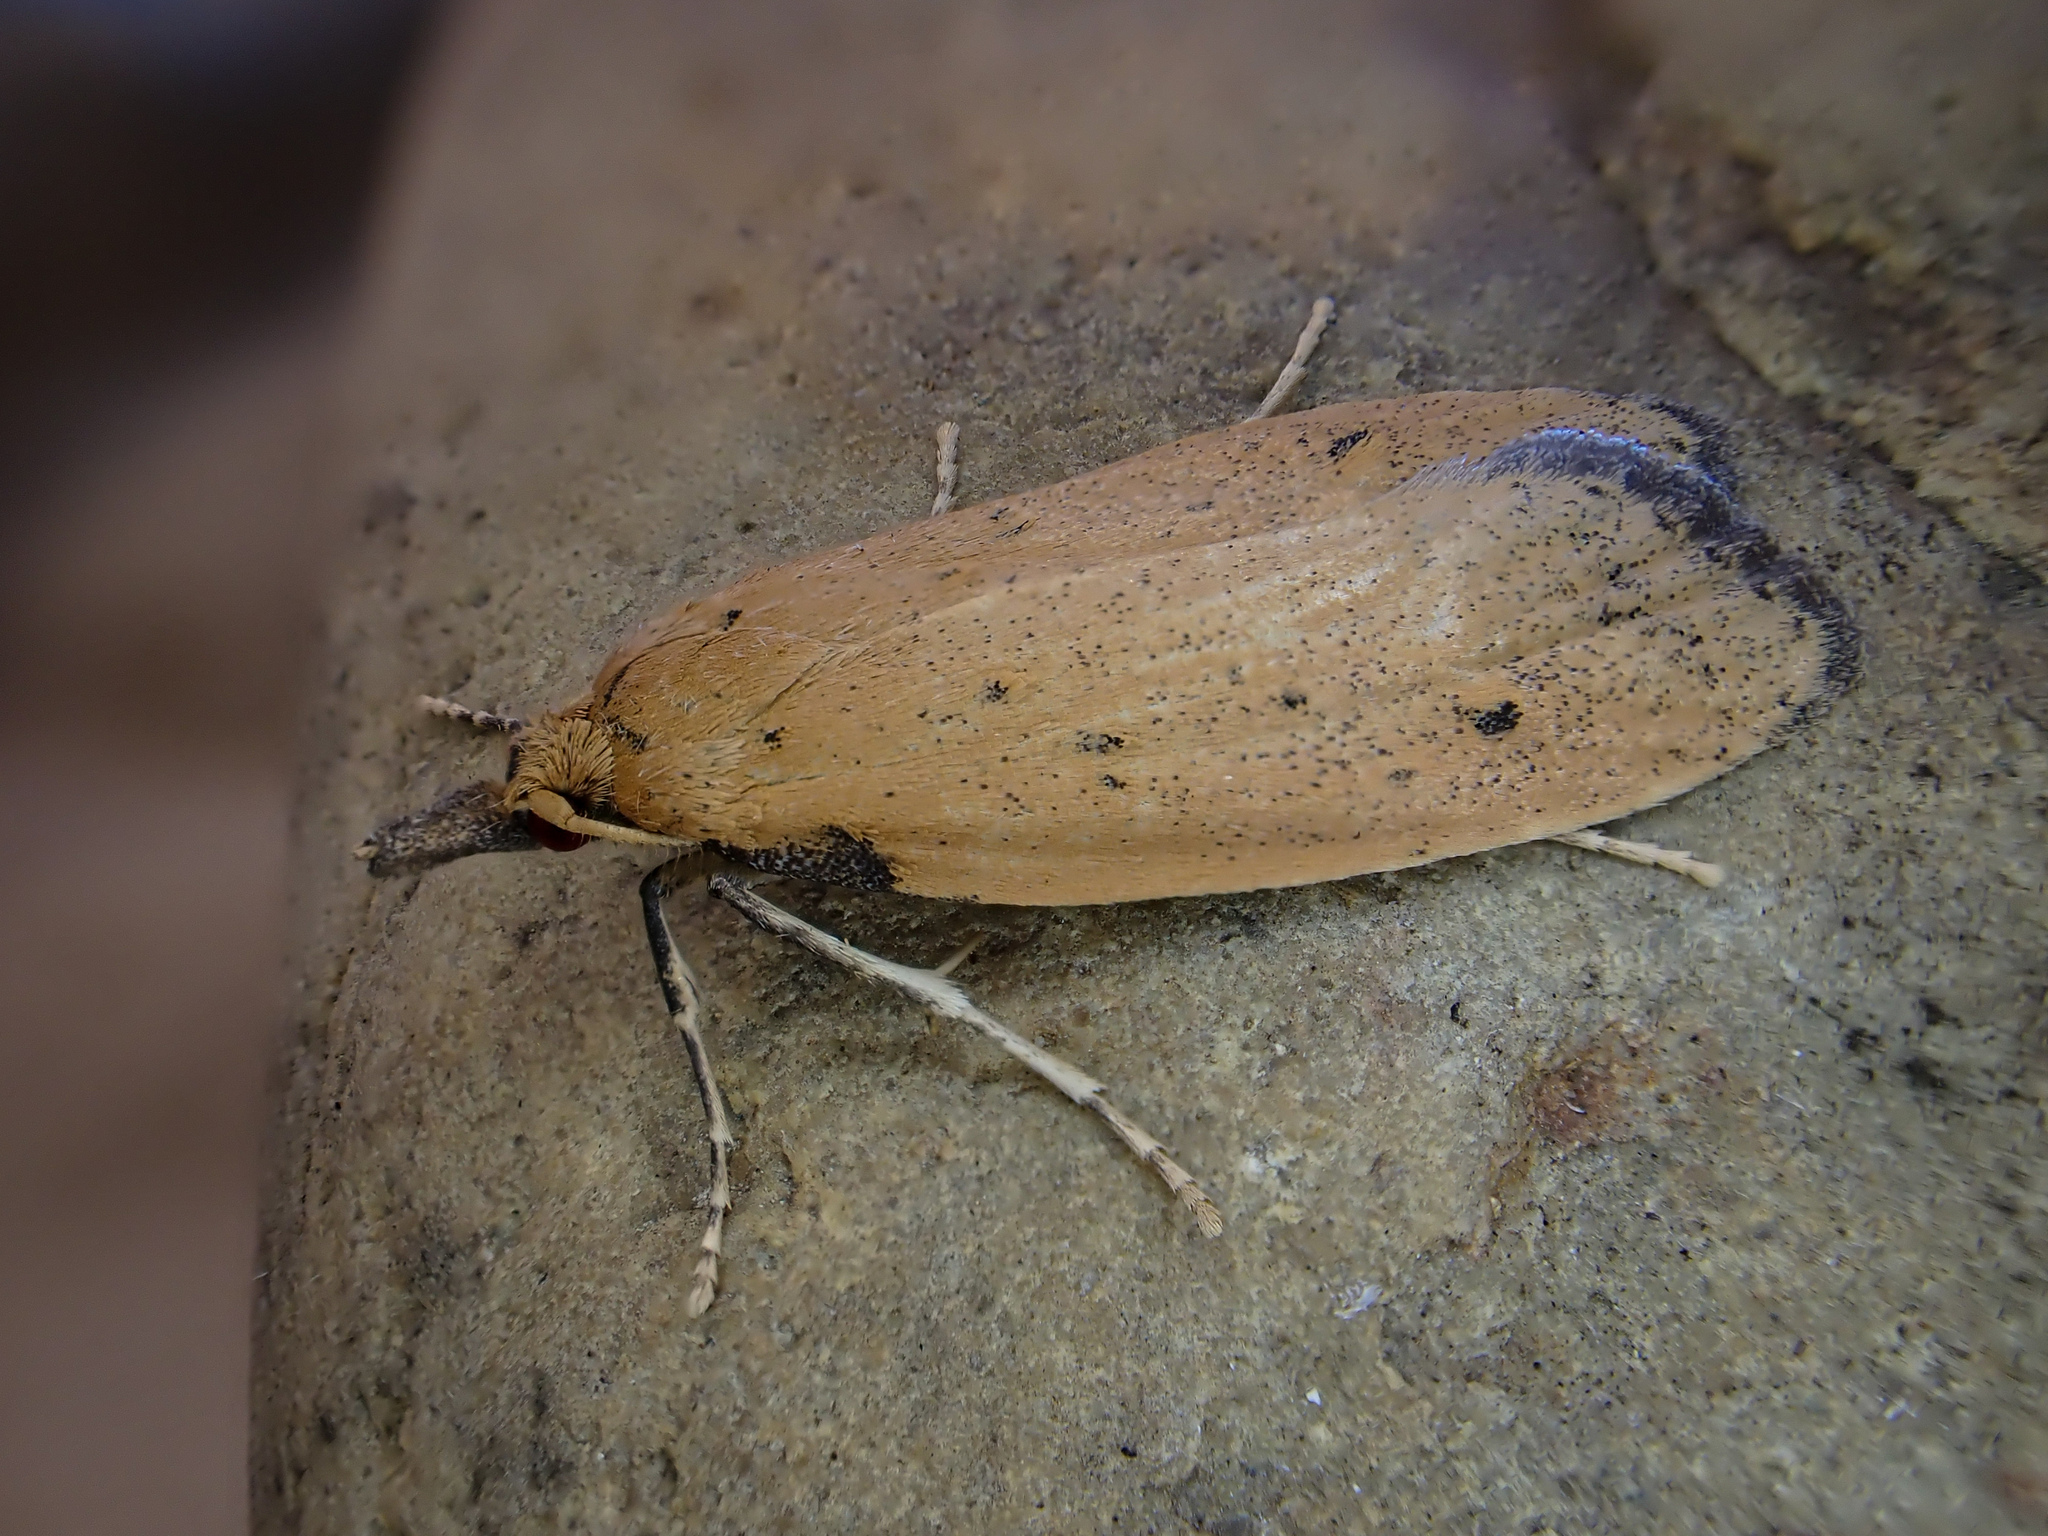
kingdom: Animalia
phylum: Arthropoda
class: Insecta
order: Lepidoptera
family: Carposinidae
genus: Glaphyrarcha
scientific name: Glaphyrarcha euthrepta
